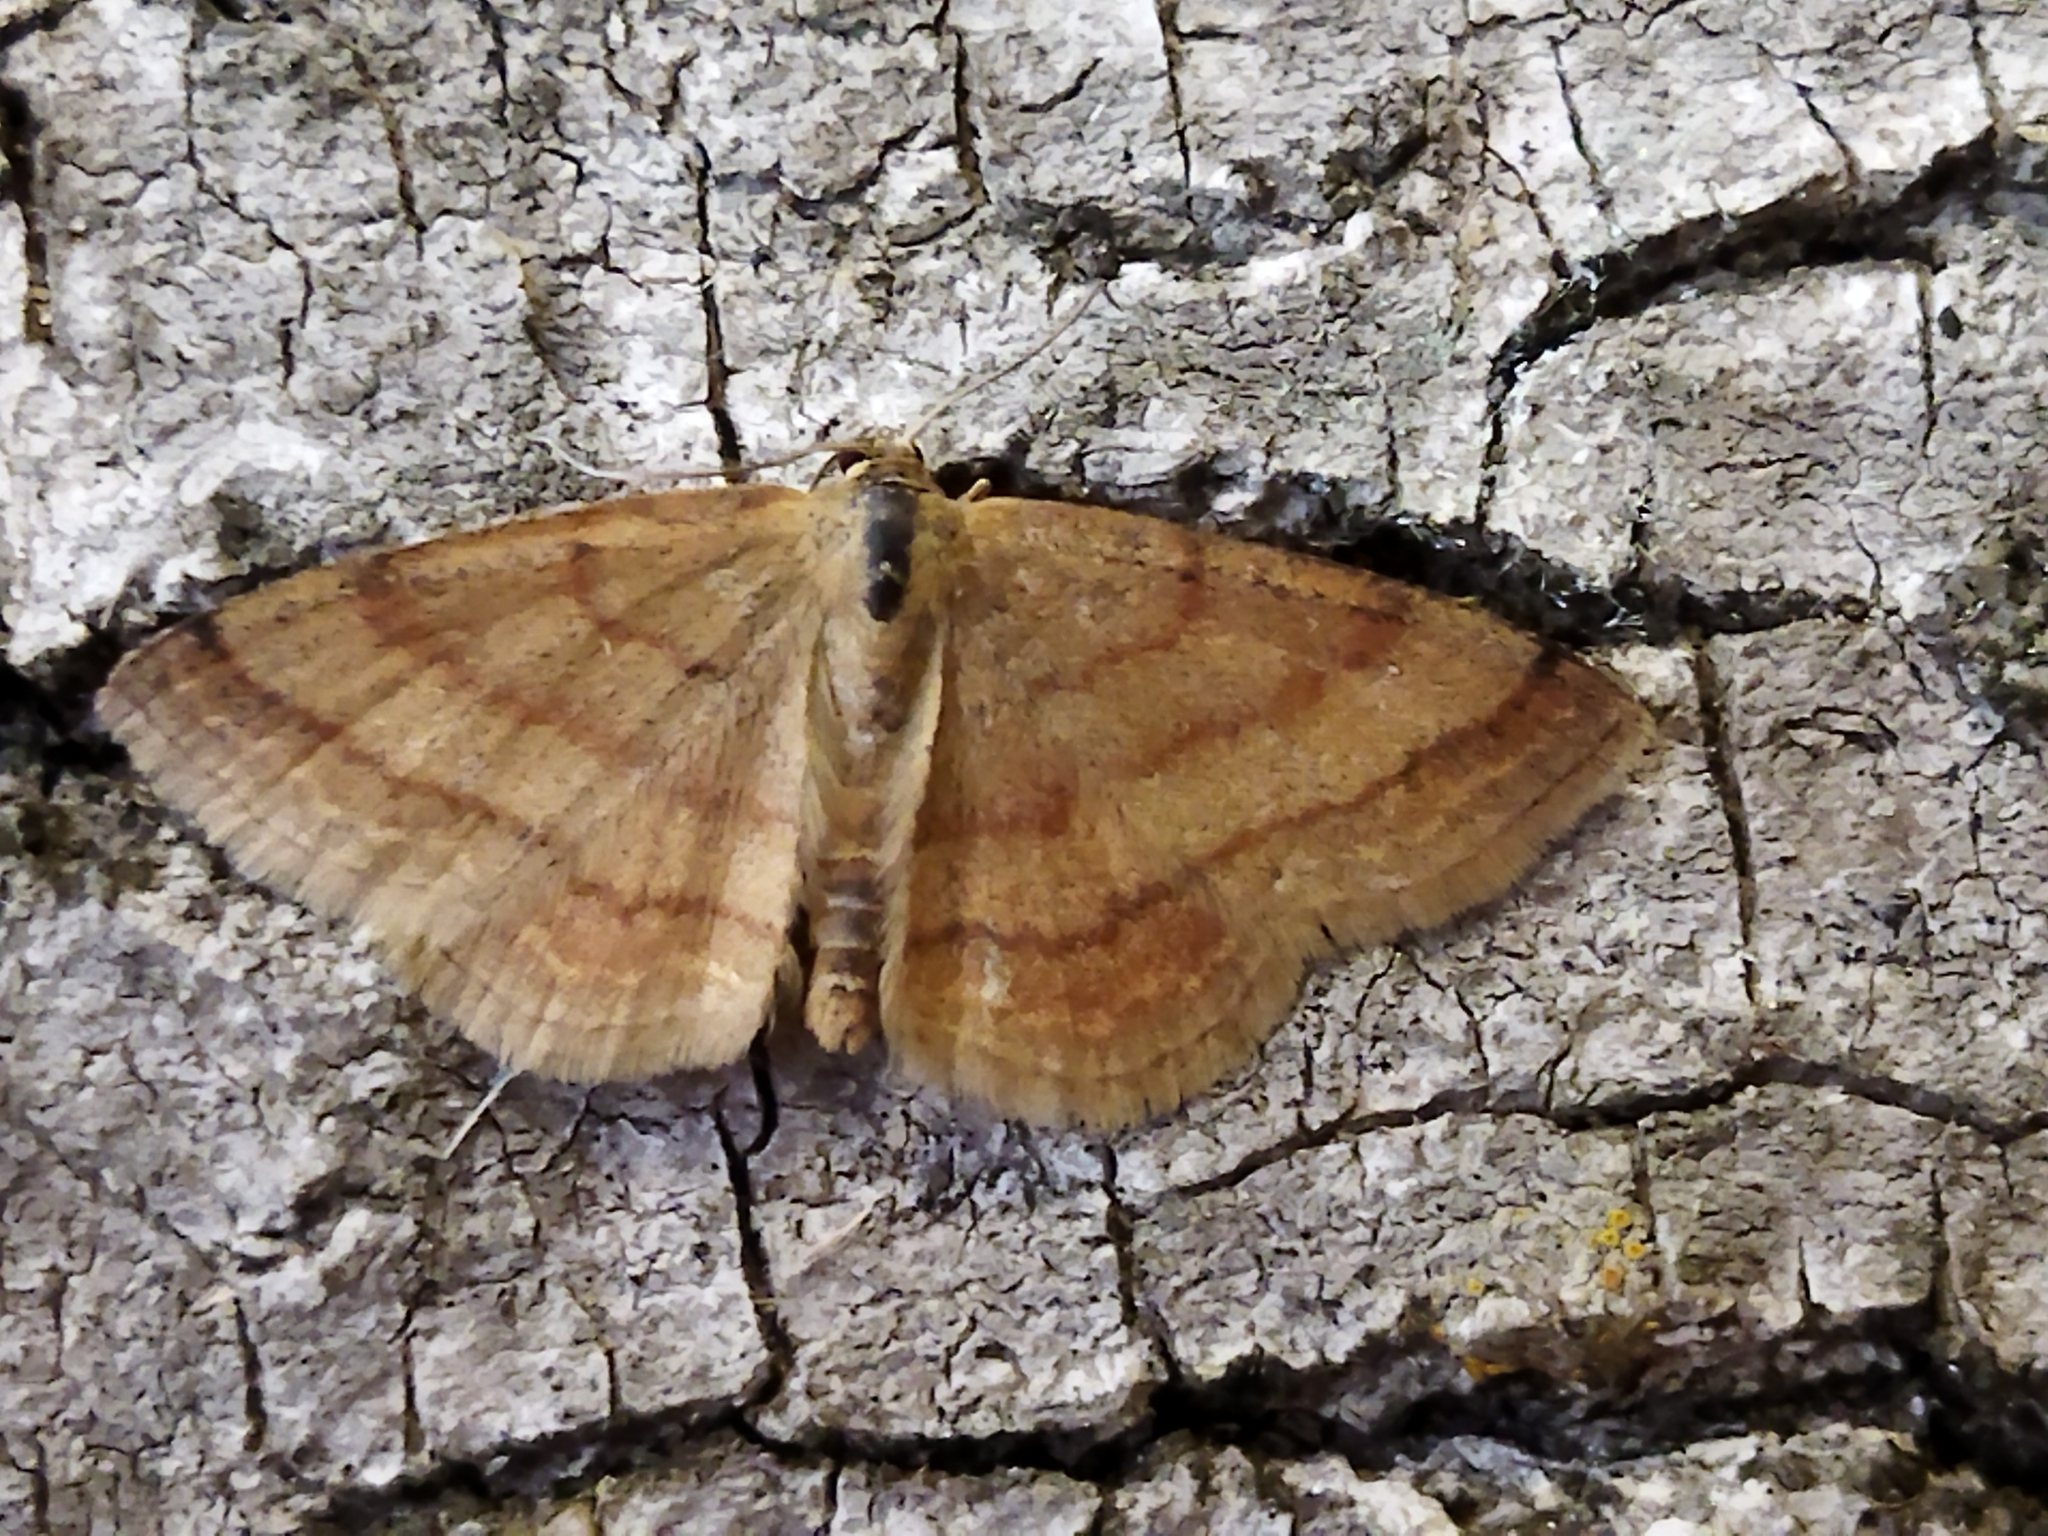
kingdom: Animalia
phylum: Arthropoda
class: Insecta
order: Lepidoptera
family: Geometridae
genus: Scopula
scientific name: Scopula rubiginata
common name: Tawny wave
